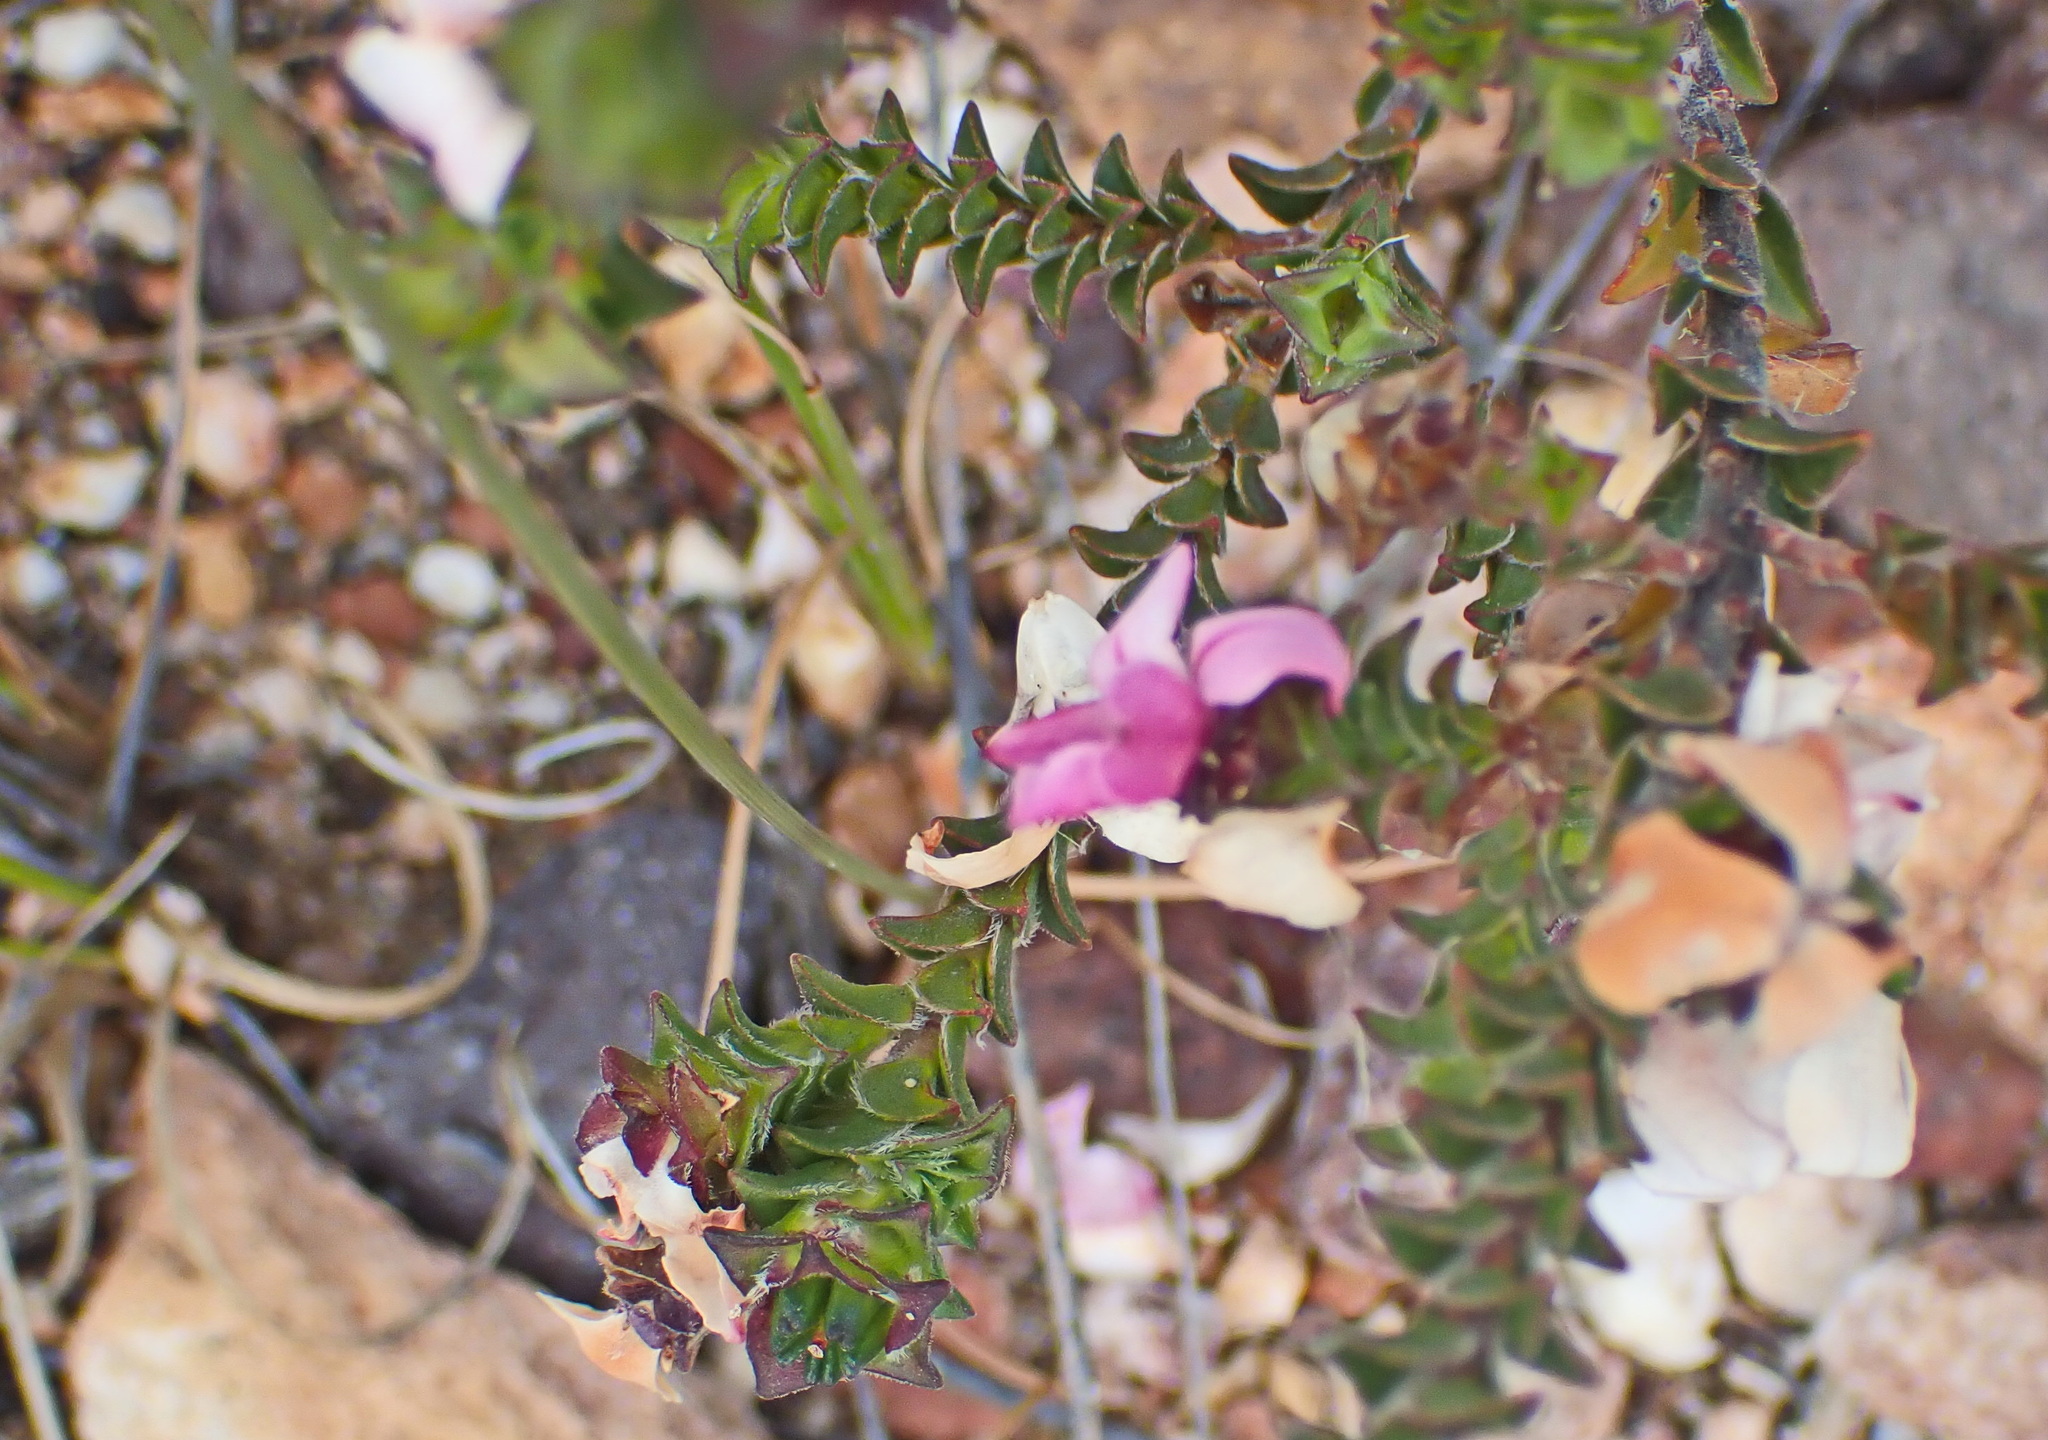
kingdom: Plantae
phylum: Tracheophyta
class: Magnoliopsida
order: Sapindales
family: Rutaceae
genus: Acmadenia
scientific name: Acmadenia tetragona
